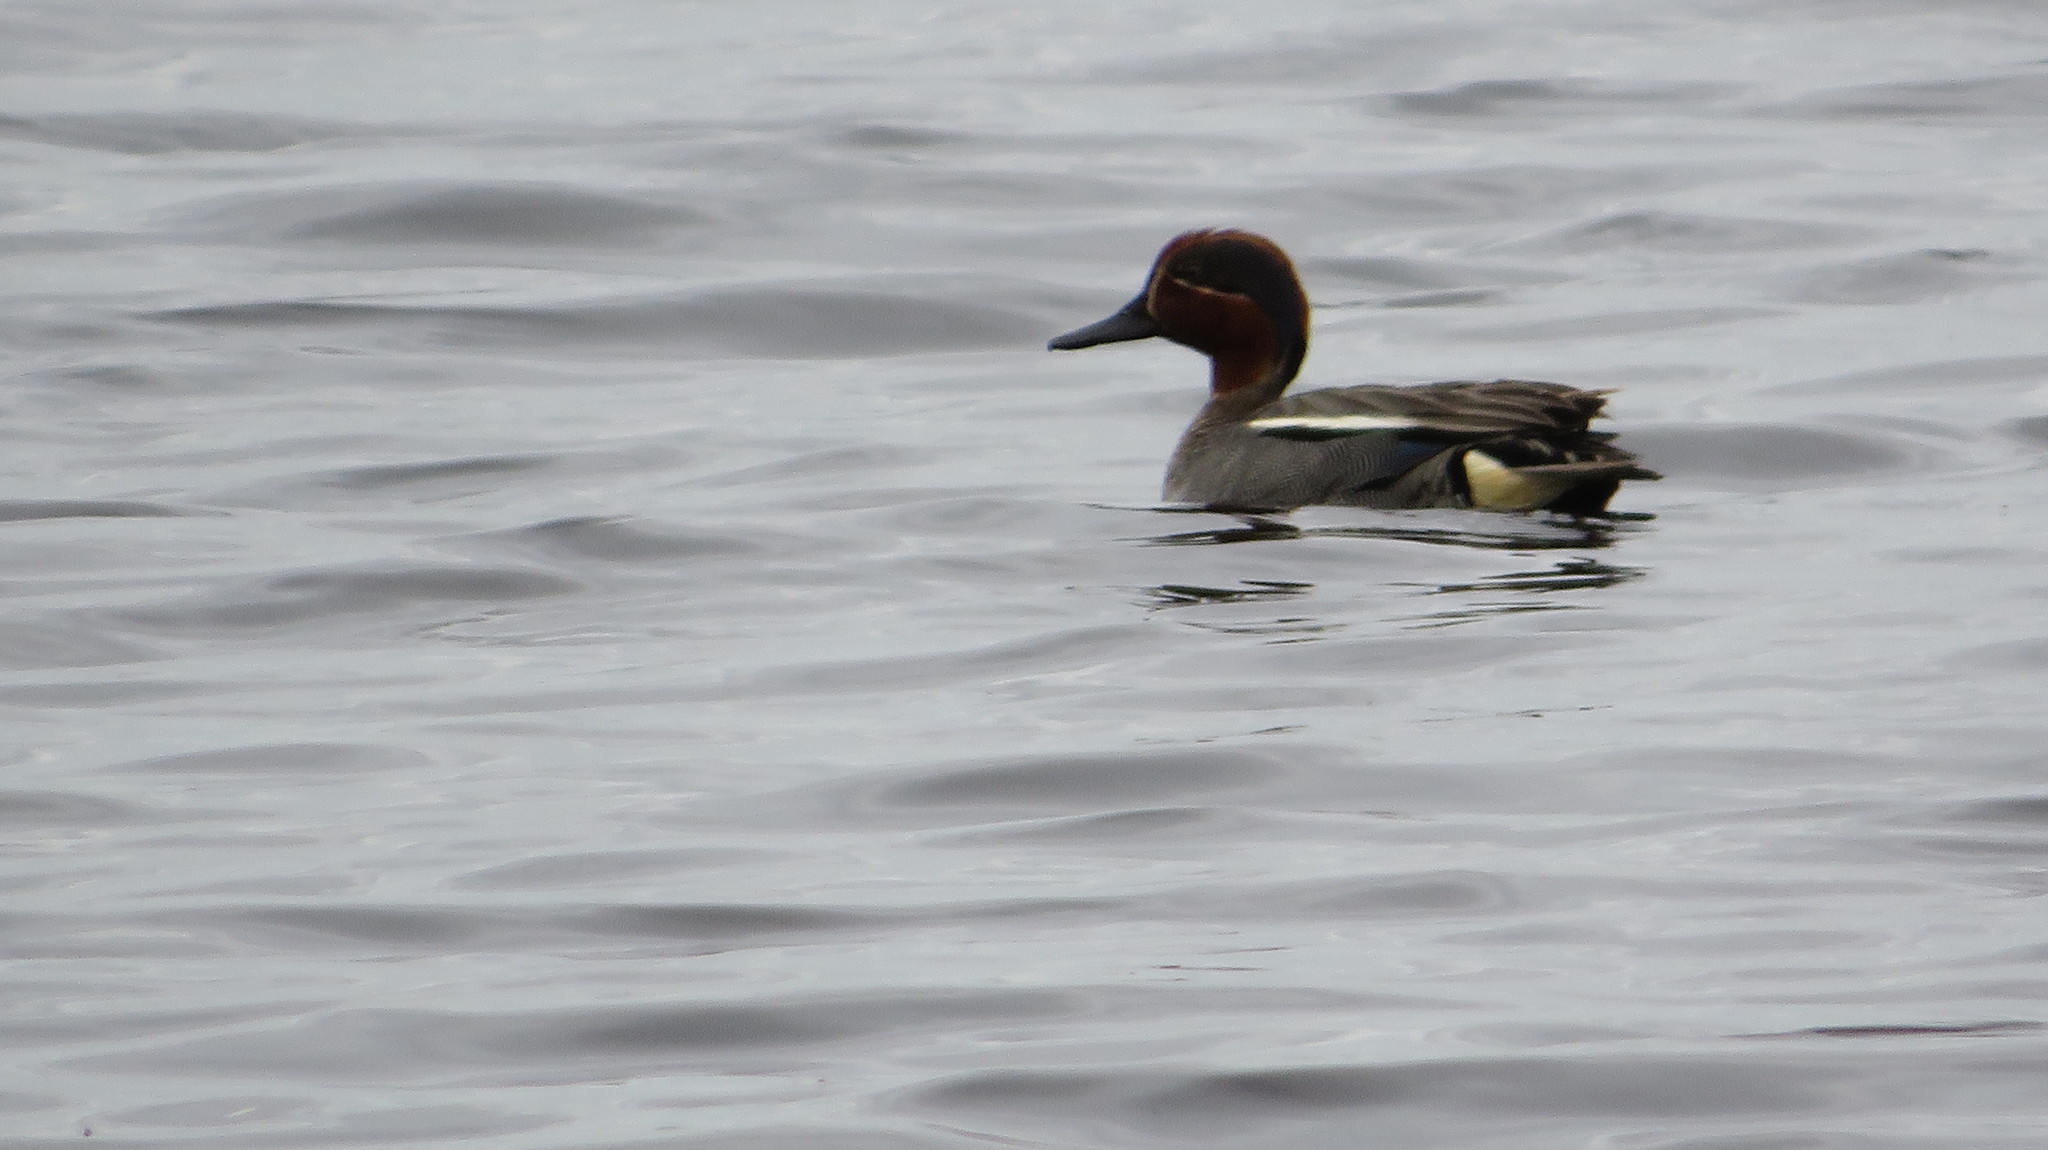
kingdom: Animalia
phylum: Chordata
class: Aves
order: Anseriformes
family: Anatidae
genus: Anas
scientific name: Anas crecca
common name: Eurasian teal
